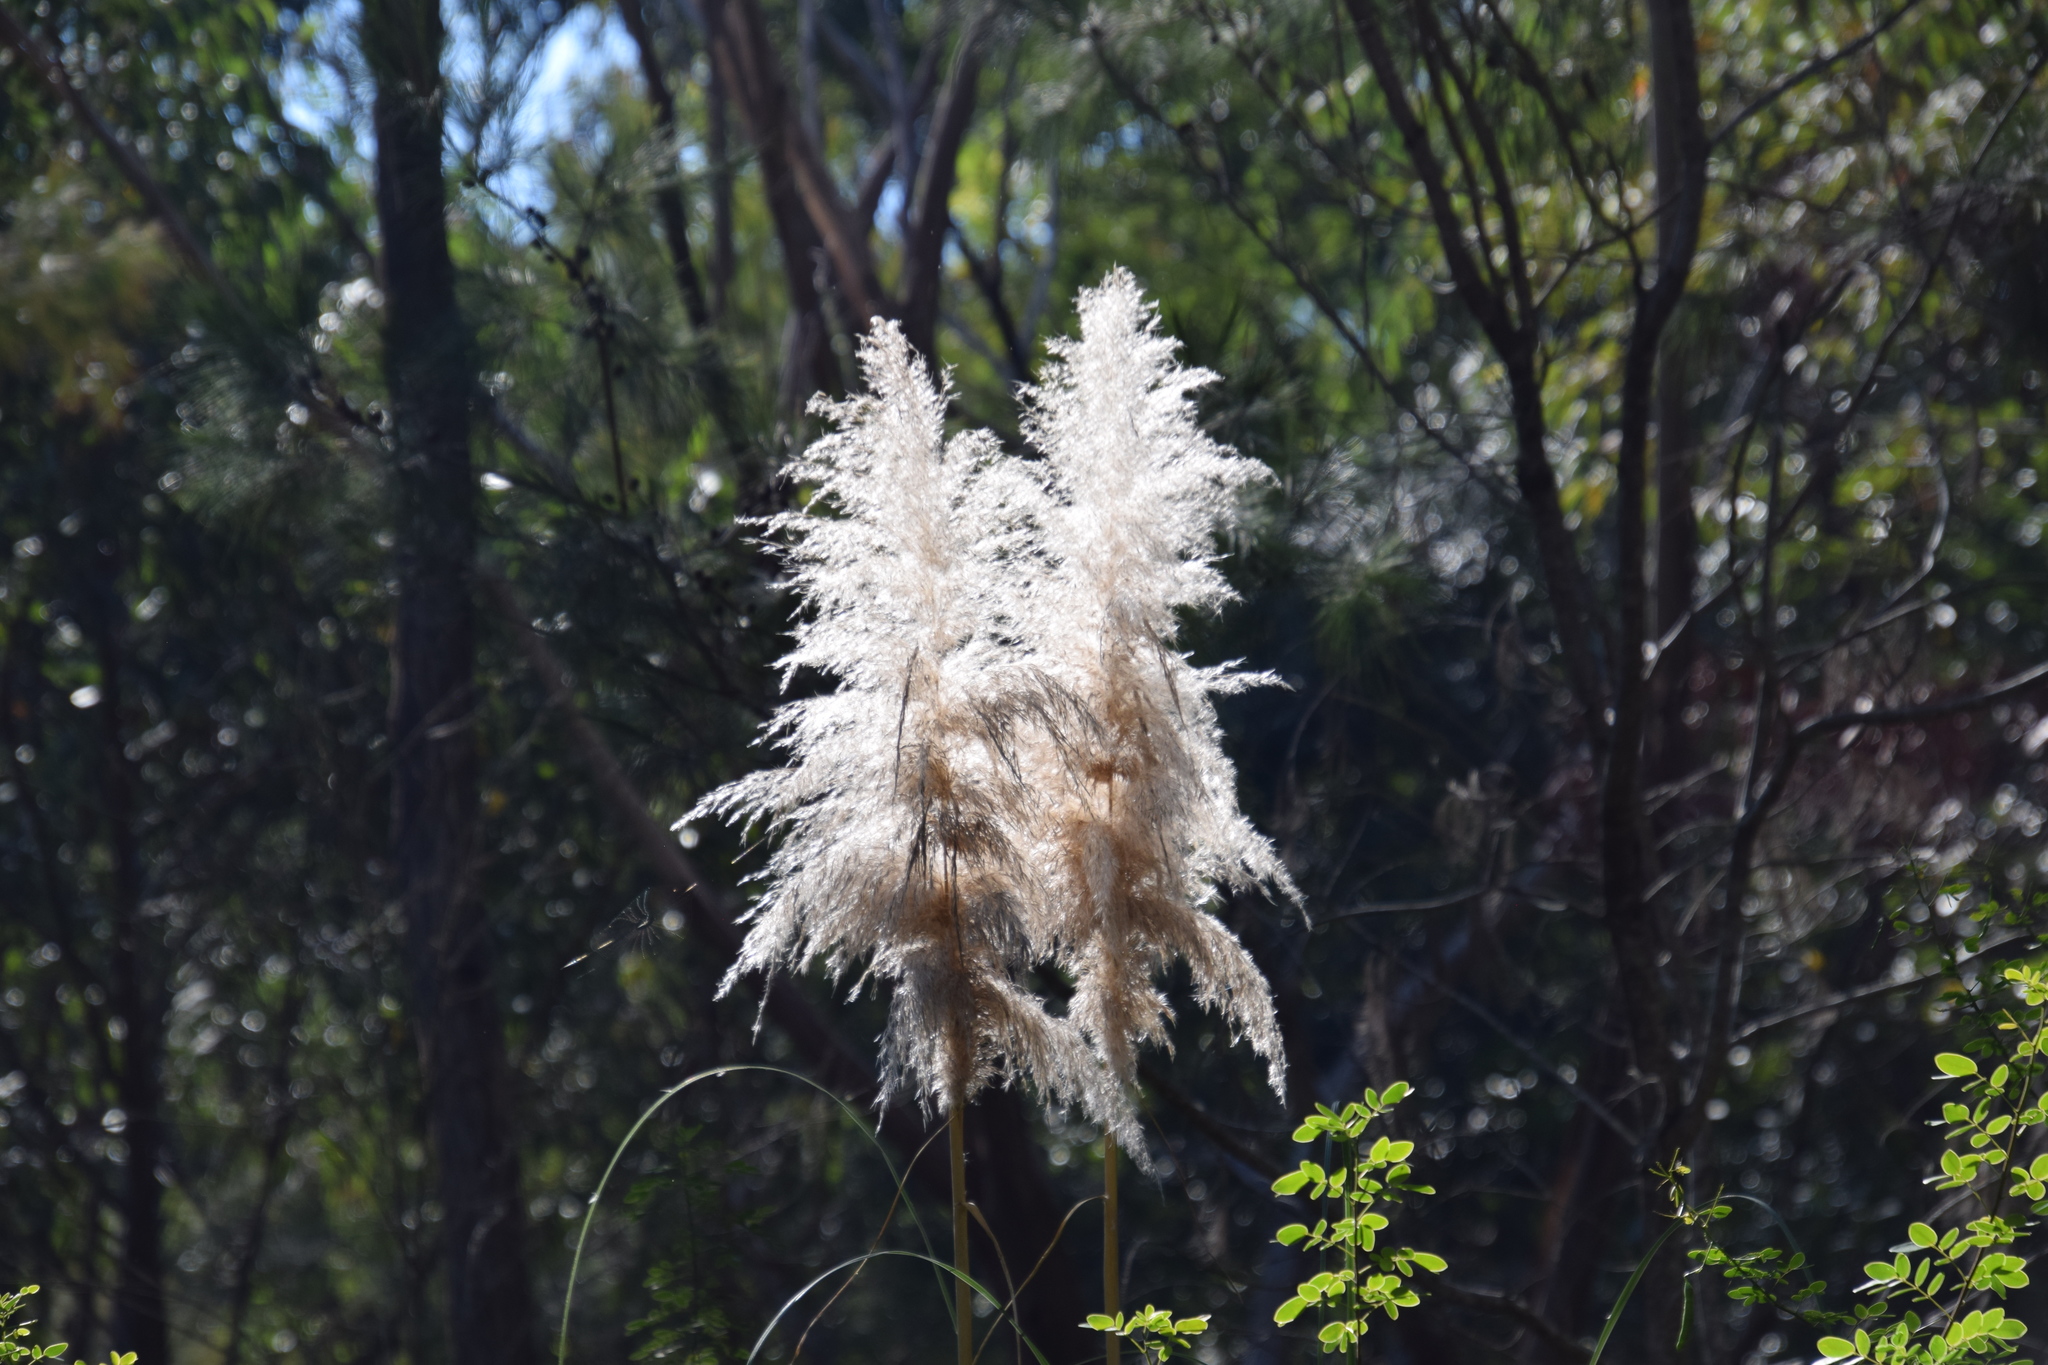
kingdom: Plantae
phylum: Tracheophyta
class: Liliopsida
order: Poales
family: Poaceae
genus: Cortaderia
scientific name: Cortaderia selloana
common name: Uruguayan pampas grass
